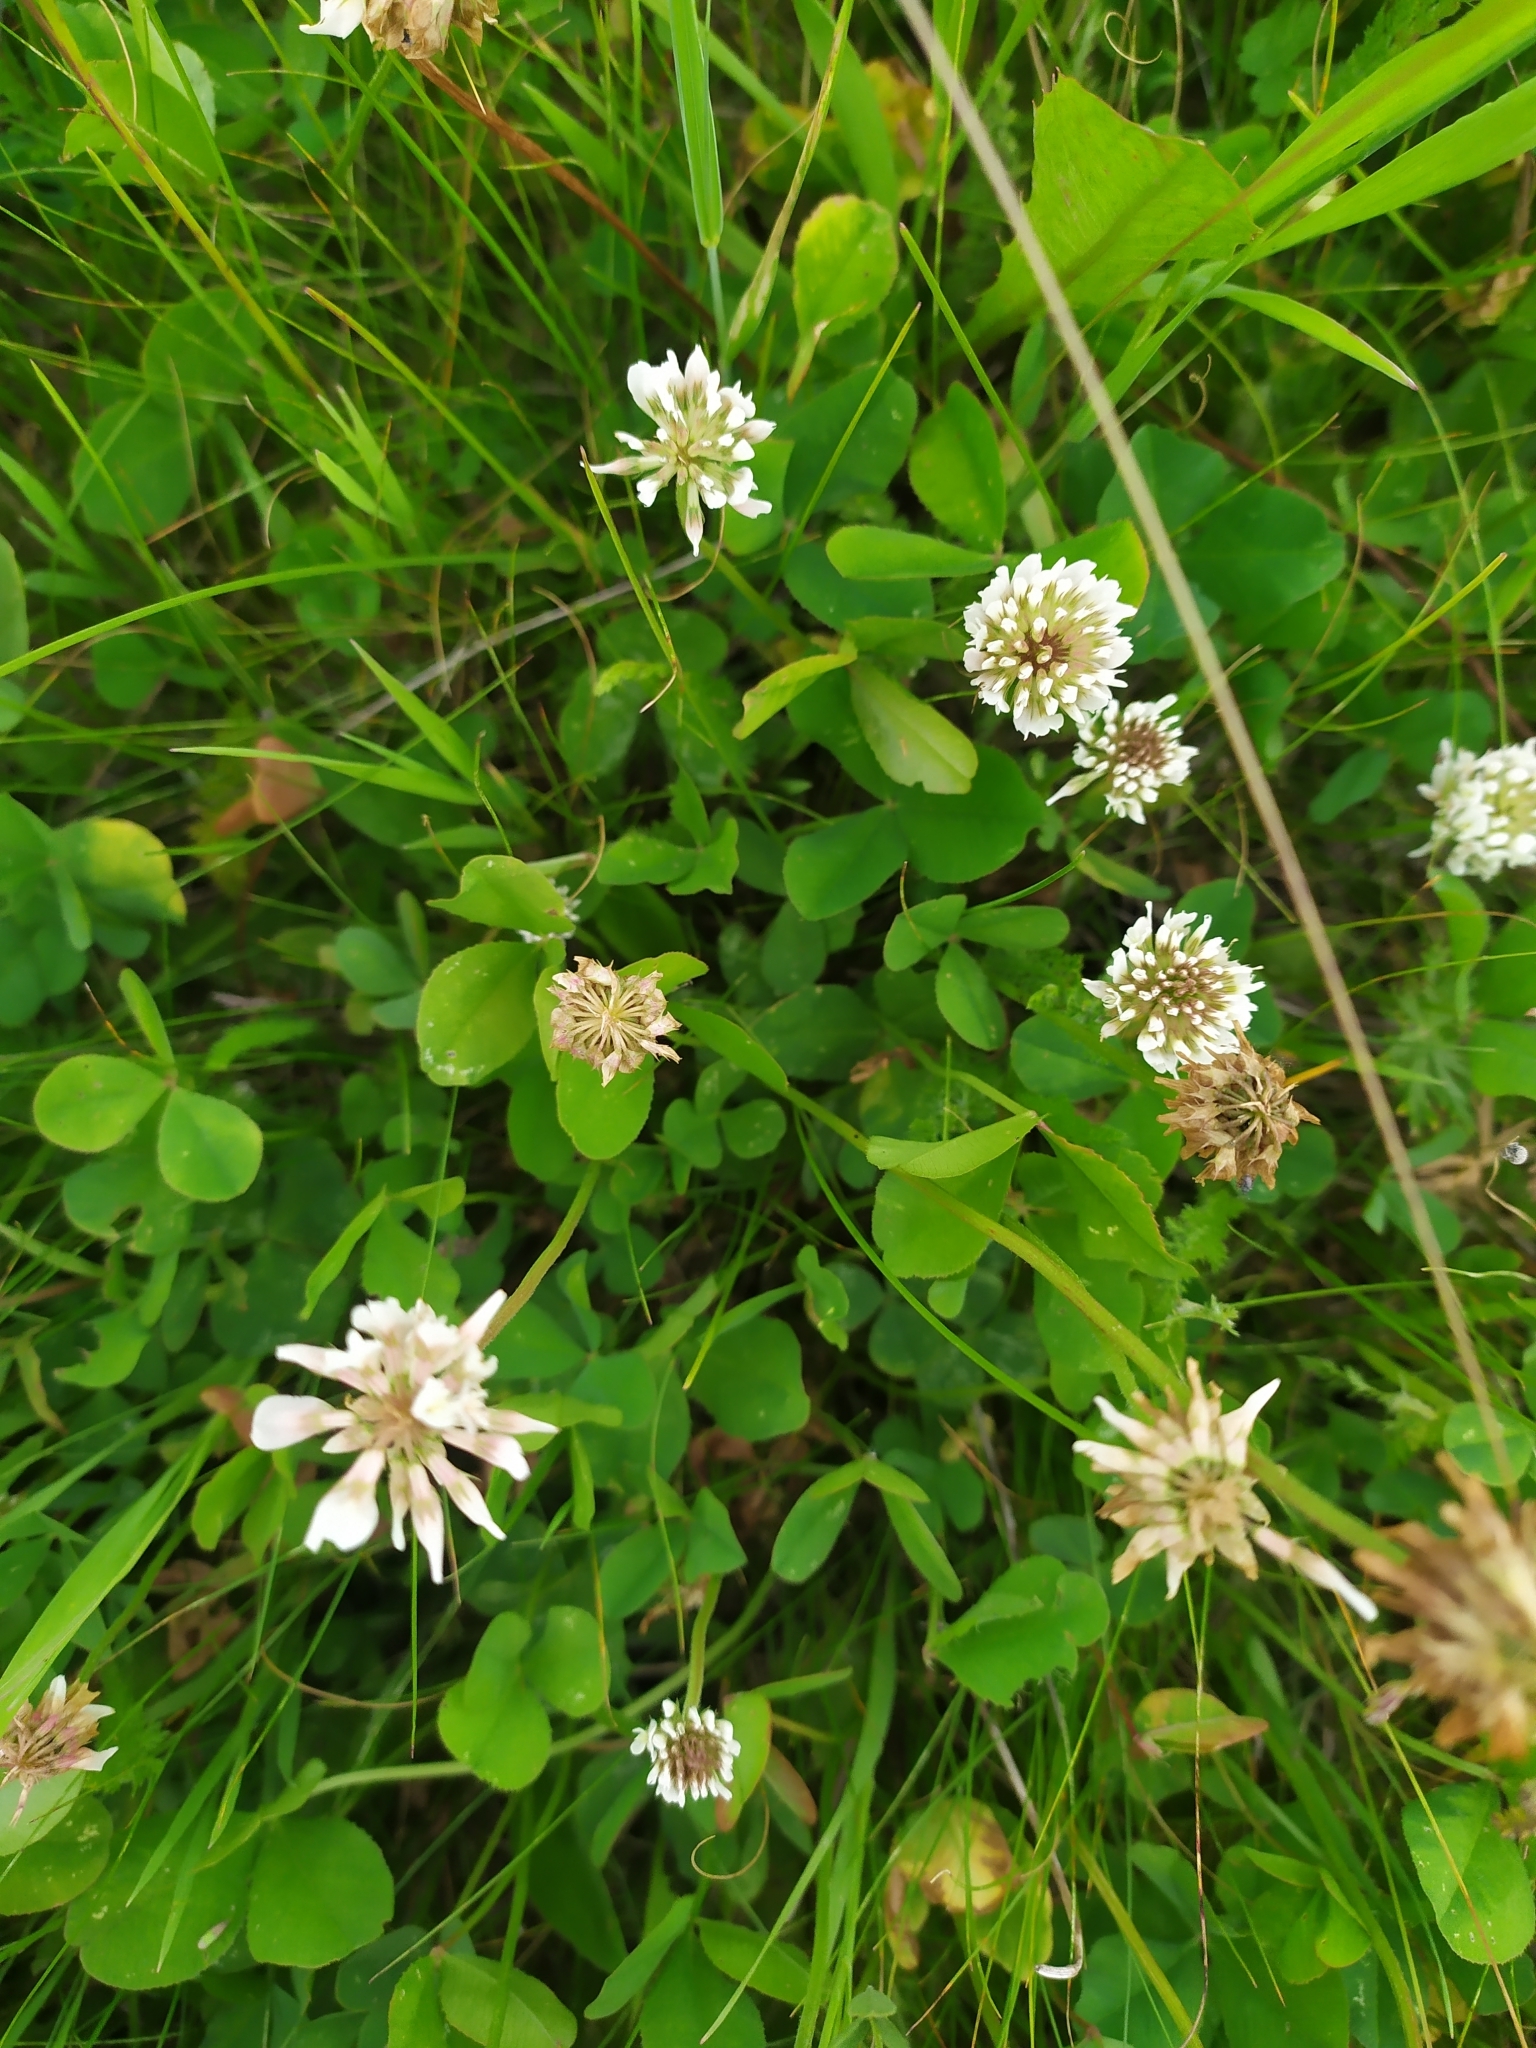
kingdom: Plantae
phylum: Tracheophyta
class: Magnoliopsida
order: Fabales
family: Fabaceae
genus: Trifolium
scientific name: Trifolium repens
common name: White clover
